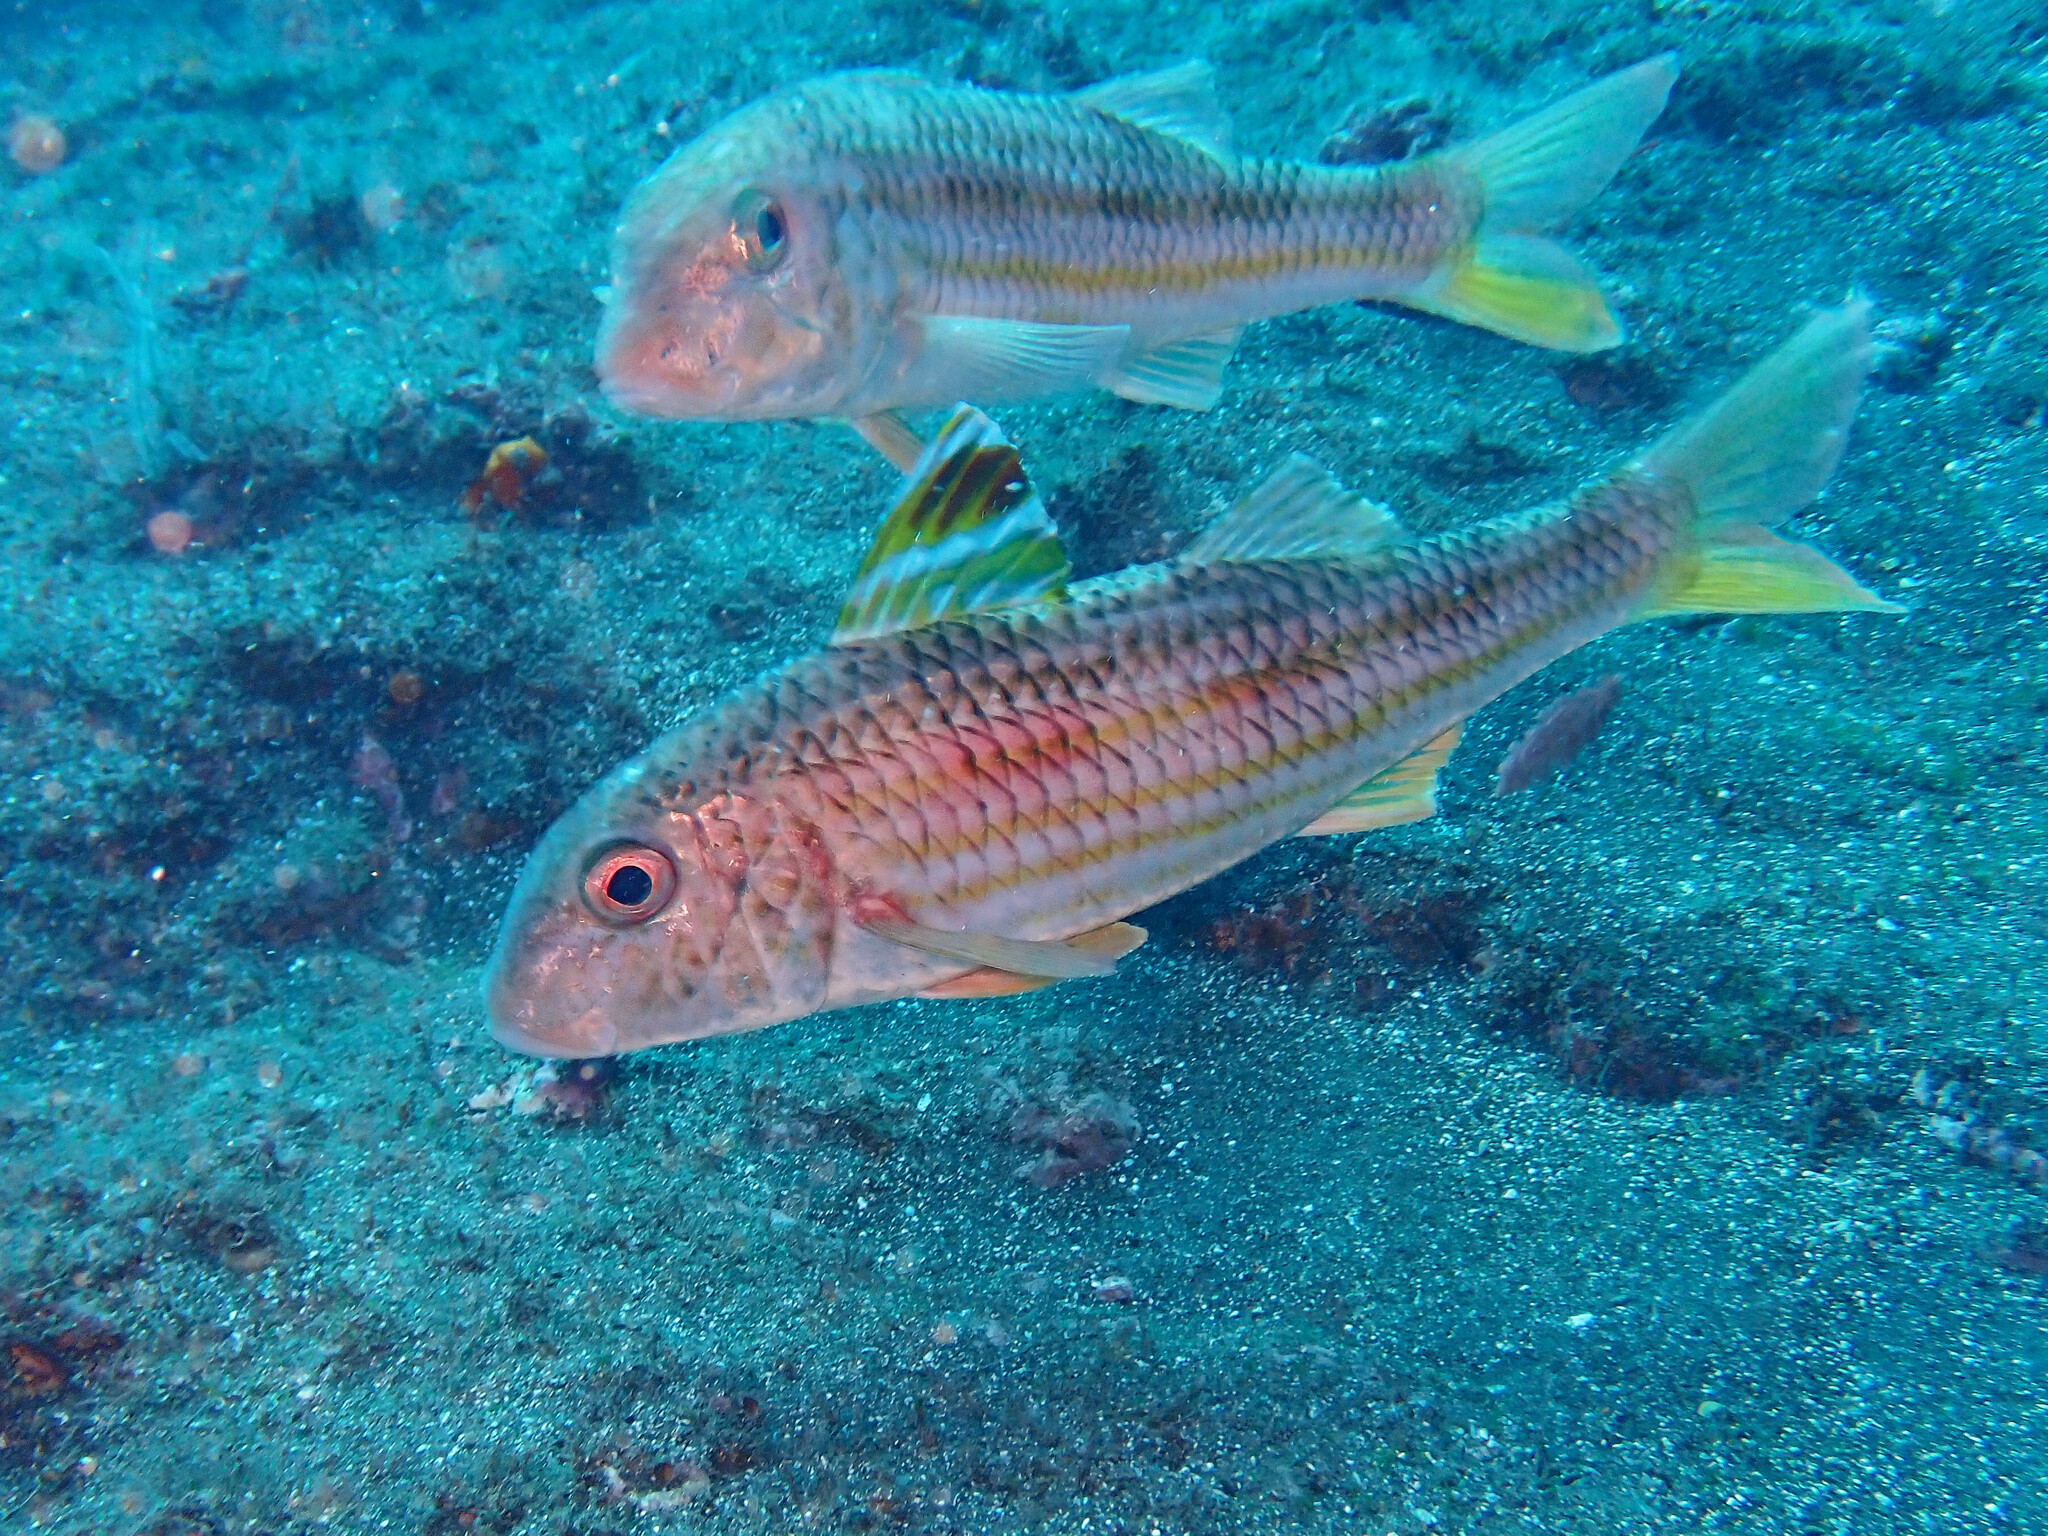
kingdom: Animalia
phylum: Chordata
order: Perciformes
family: Mullidae
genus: Mullus
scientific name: Mullus surmuletus
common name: Red mullet
